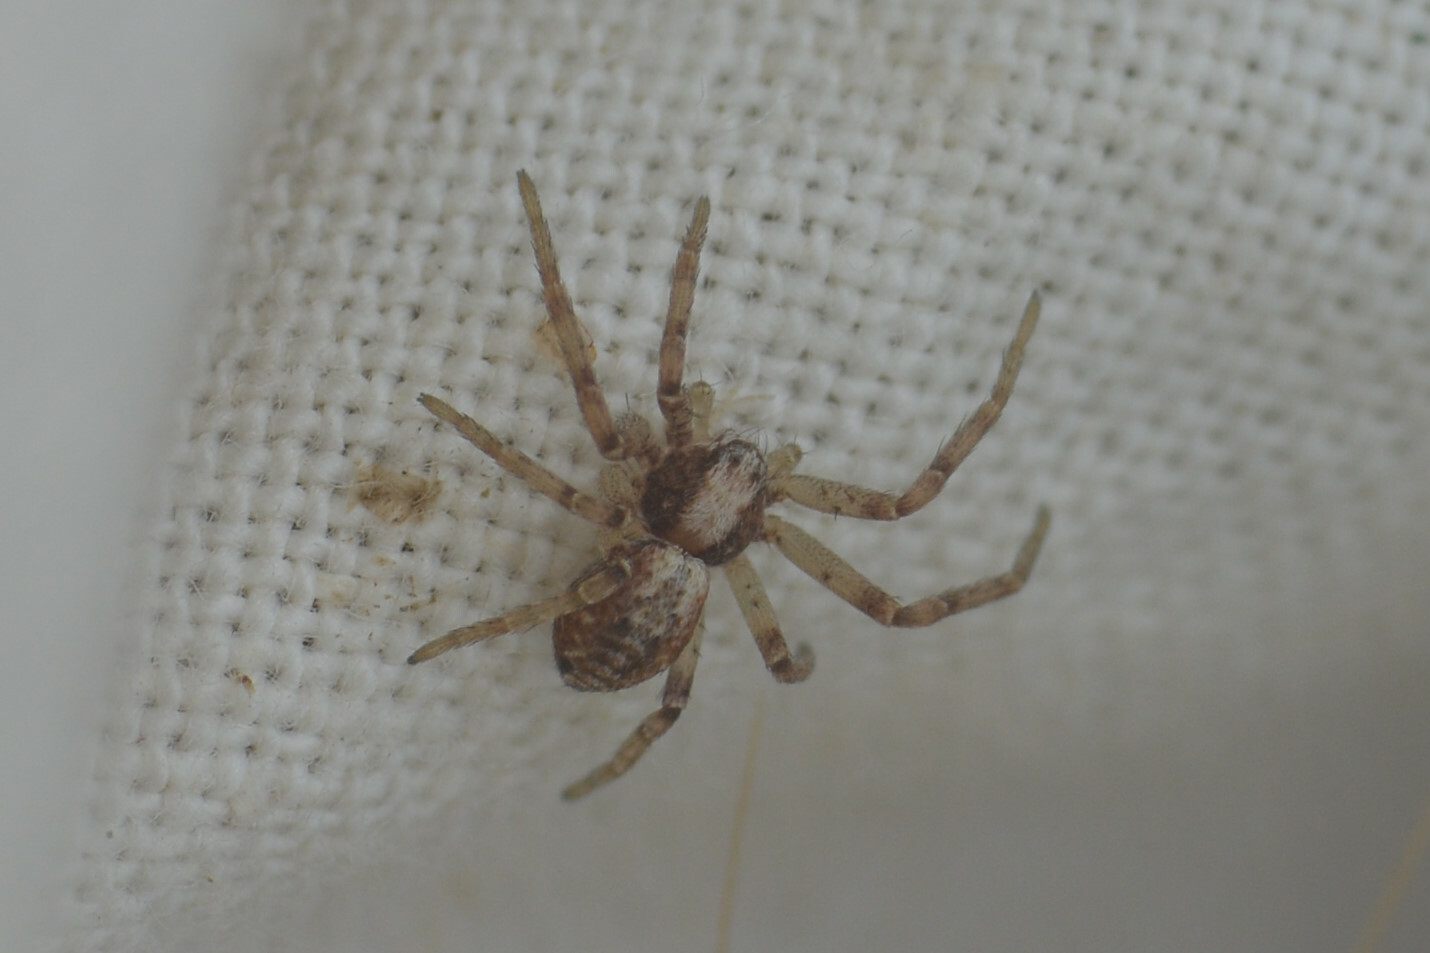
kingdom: Animalia
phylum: Arthropoda
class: Arachnida
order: Araneae
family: Philodromidae
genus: Philodromus
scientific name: Philodromus
